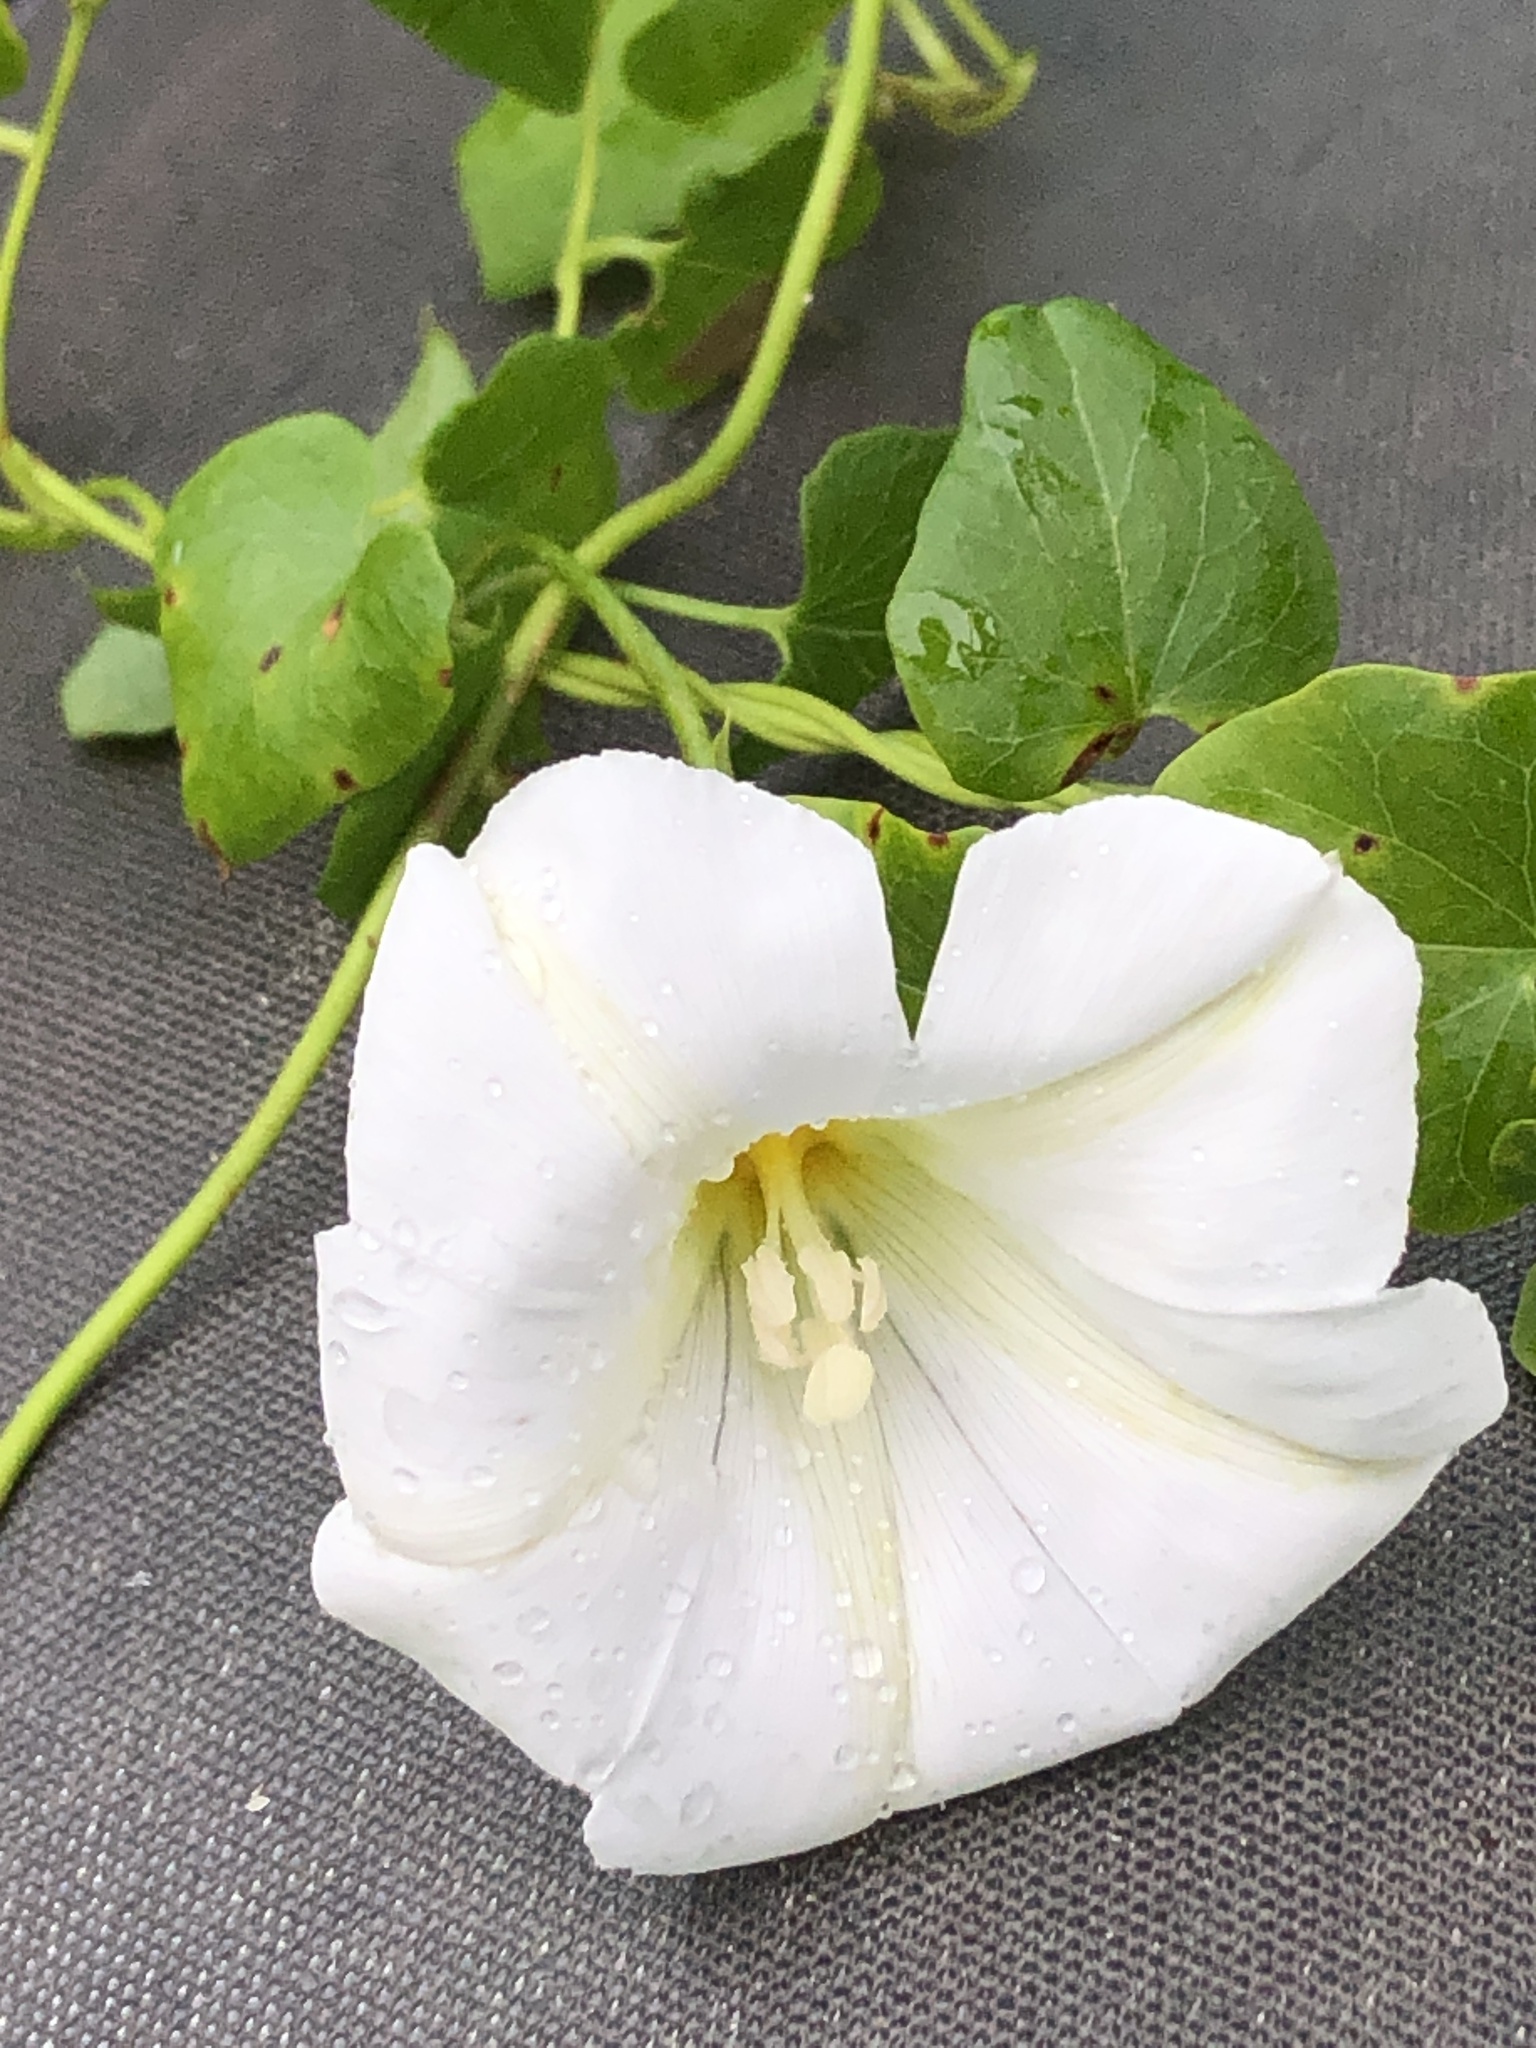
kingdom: Plantae
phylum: Tracheophyta
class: Magnoliopsida
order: Solanales
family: Convolvulaceae
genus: Calystegia
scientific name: Calystegia tuguriorum
